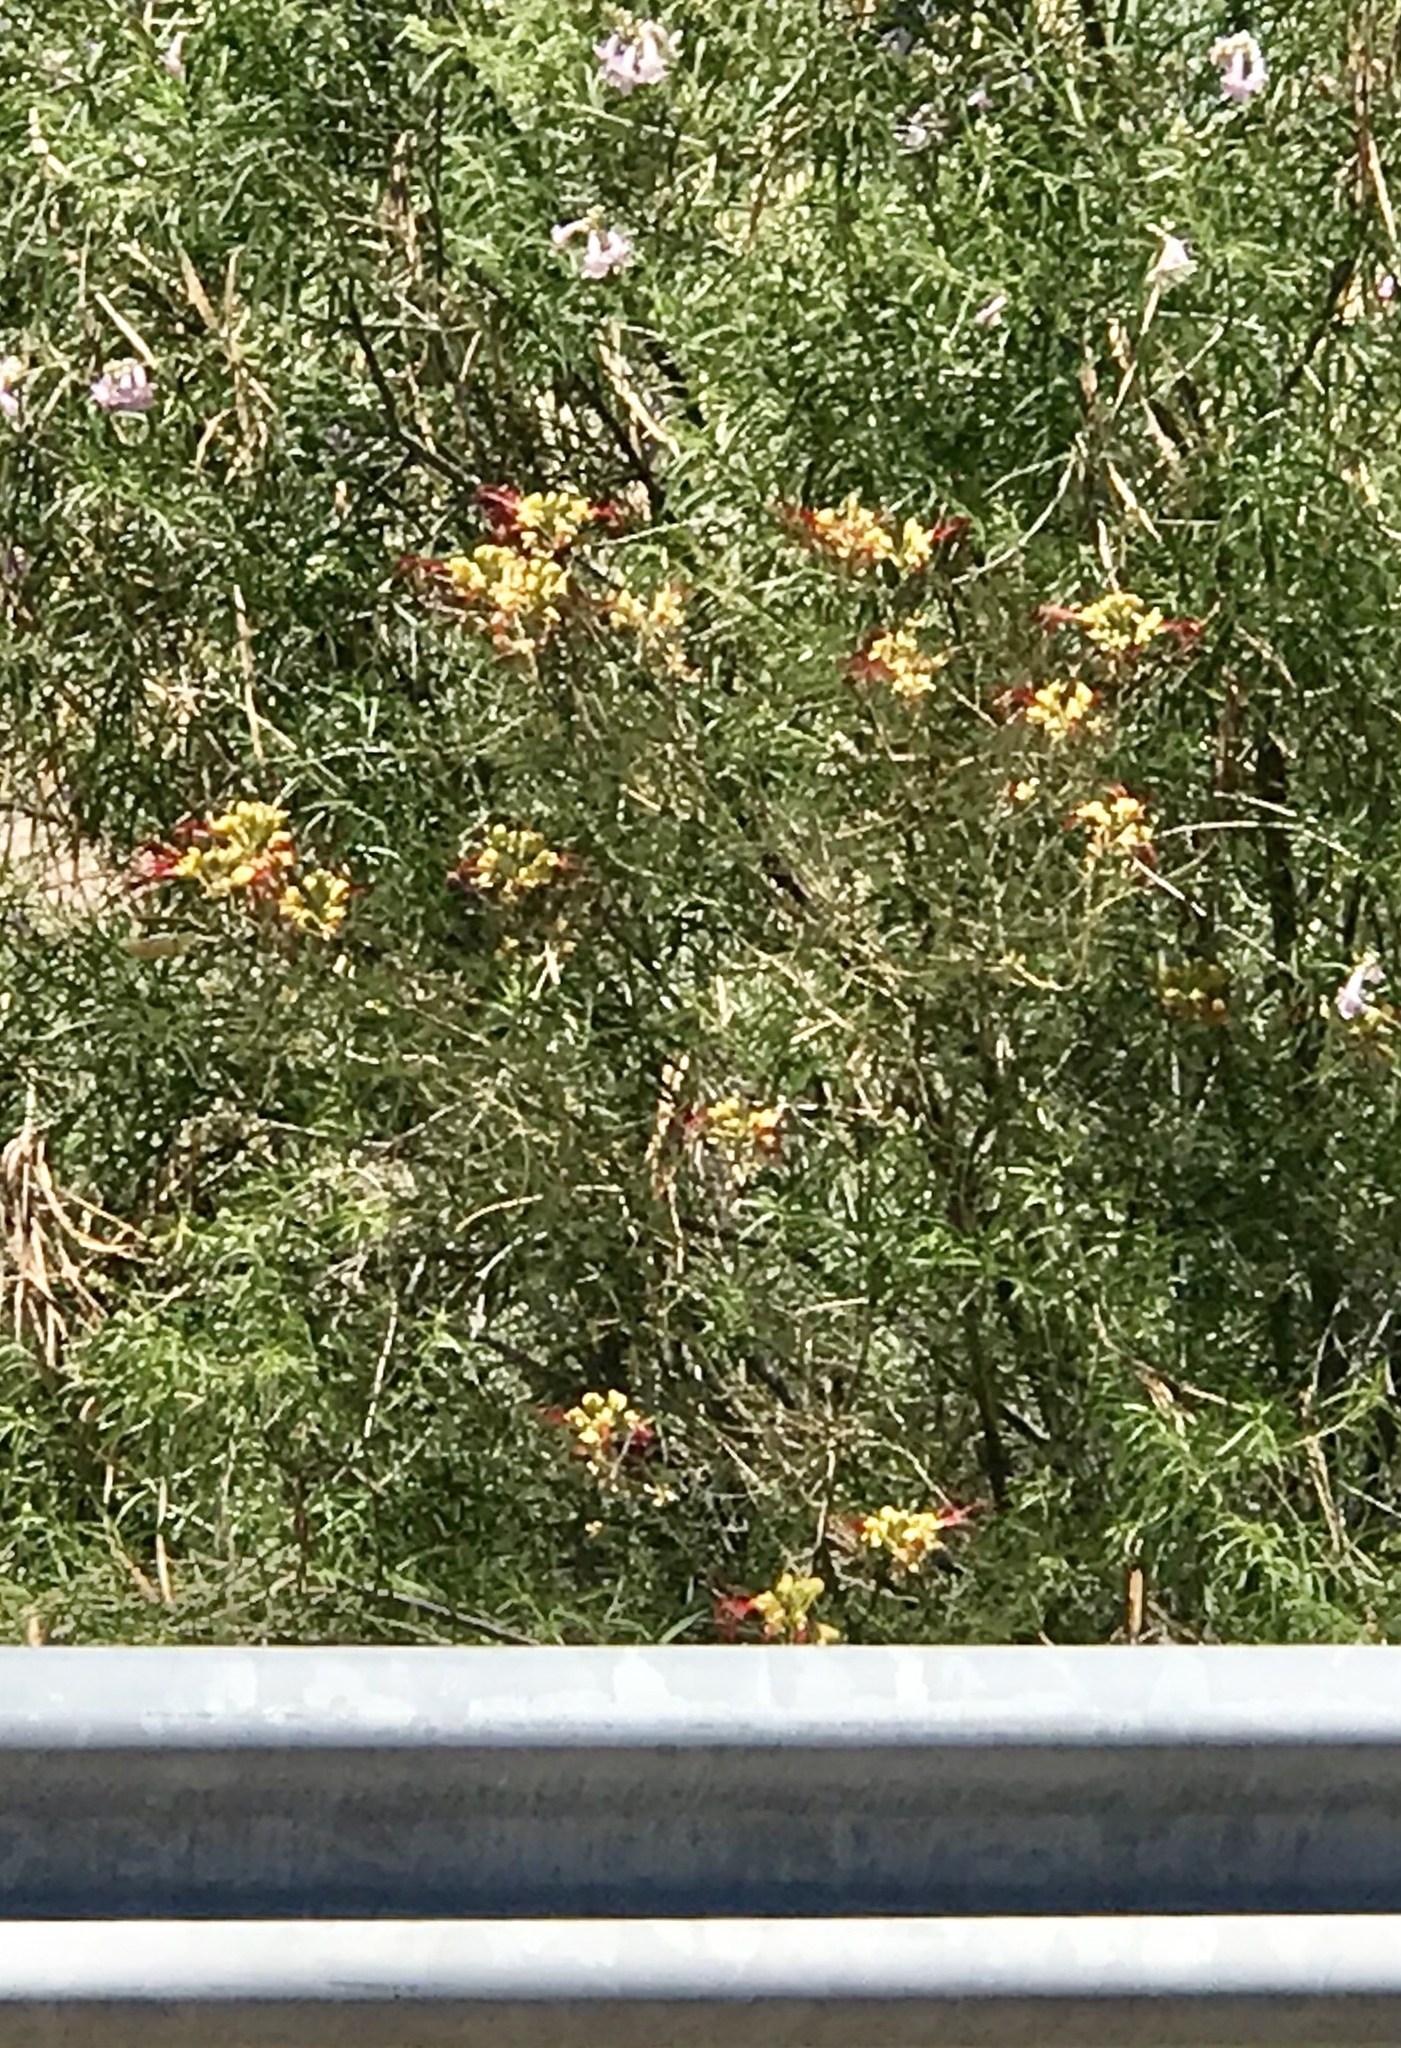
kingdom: Plantae
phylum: Tracheophyta
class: Magnoliopsida
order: Fabales
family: Fabaceae
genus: Erythrostemon
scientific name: Erythrostemon gilliesii
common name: Bird-of-paradise shrub
